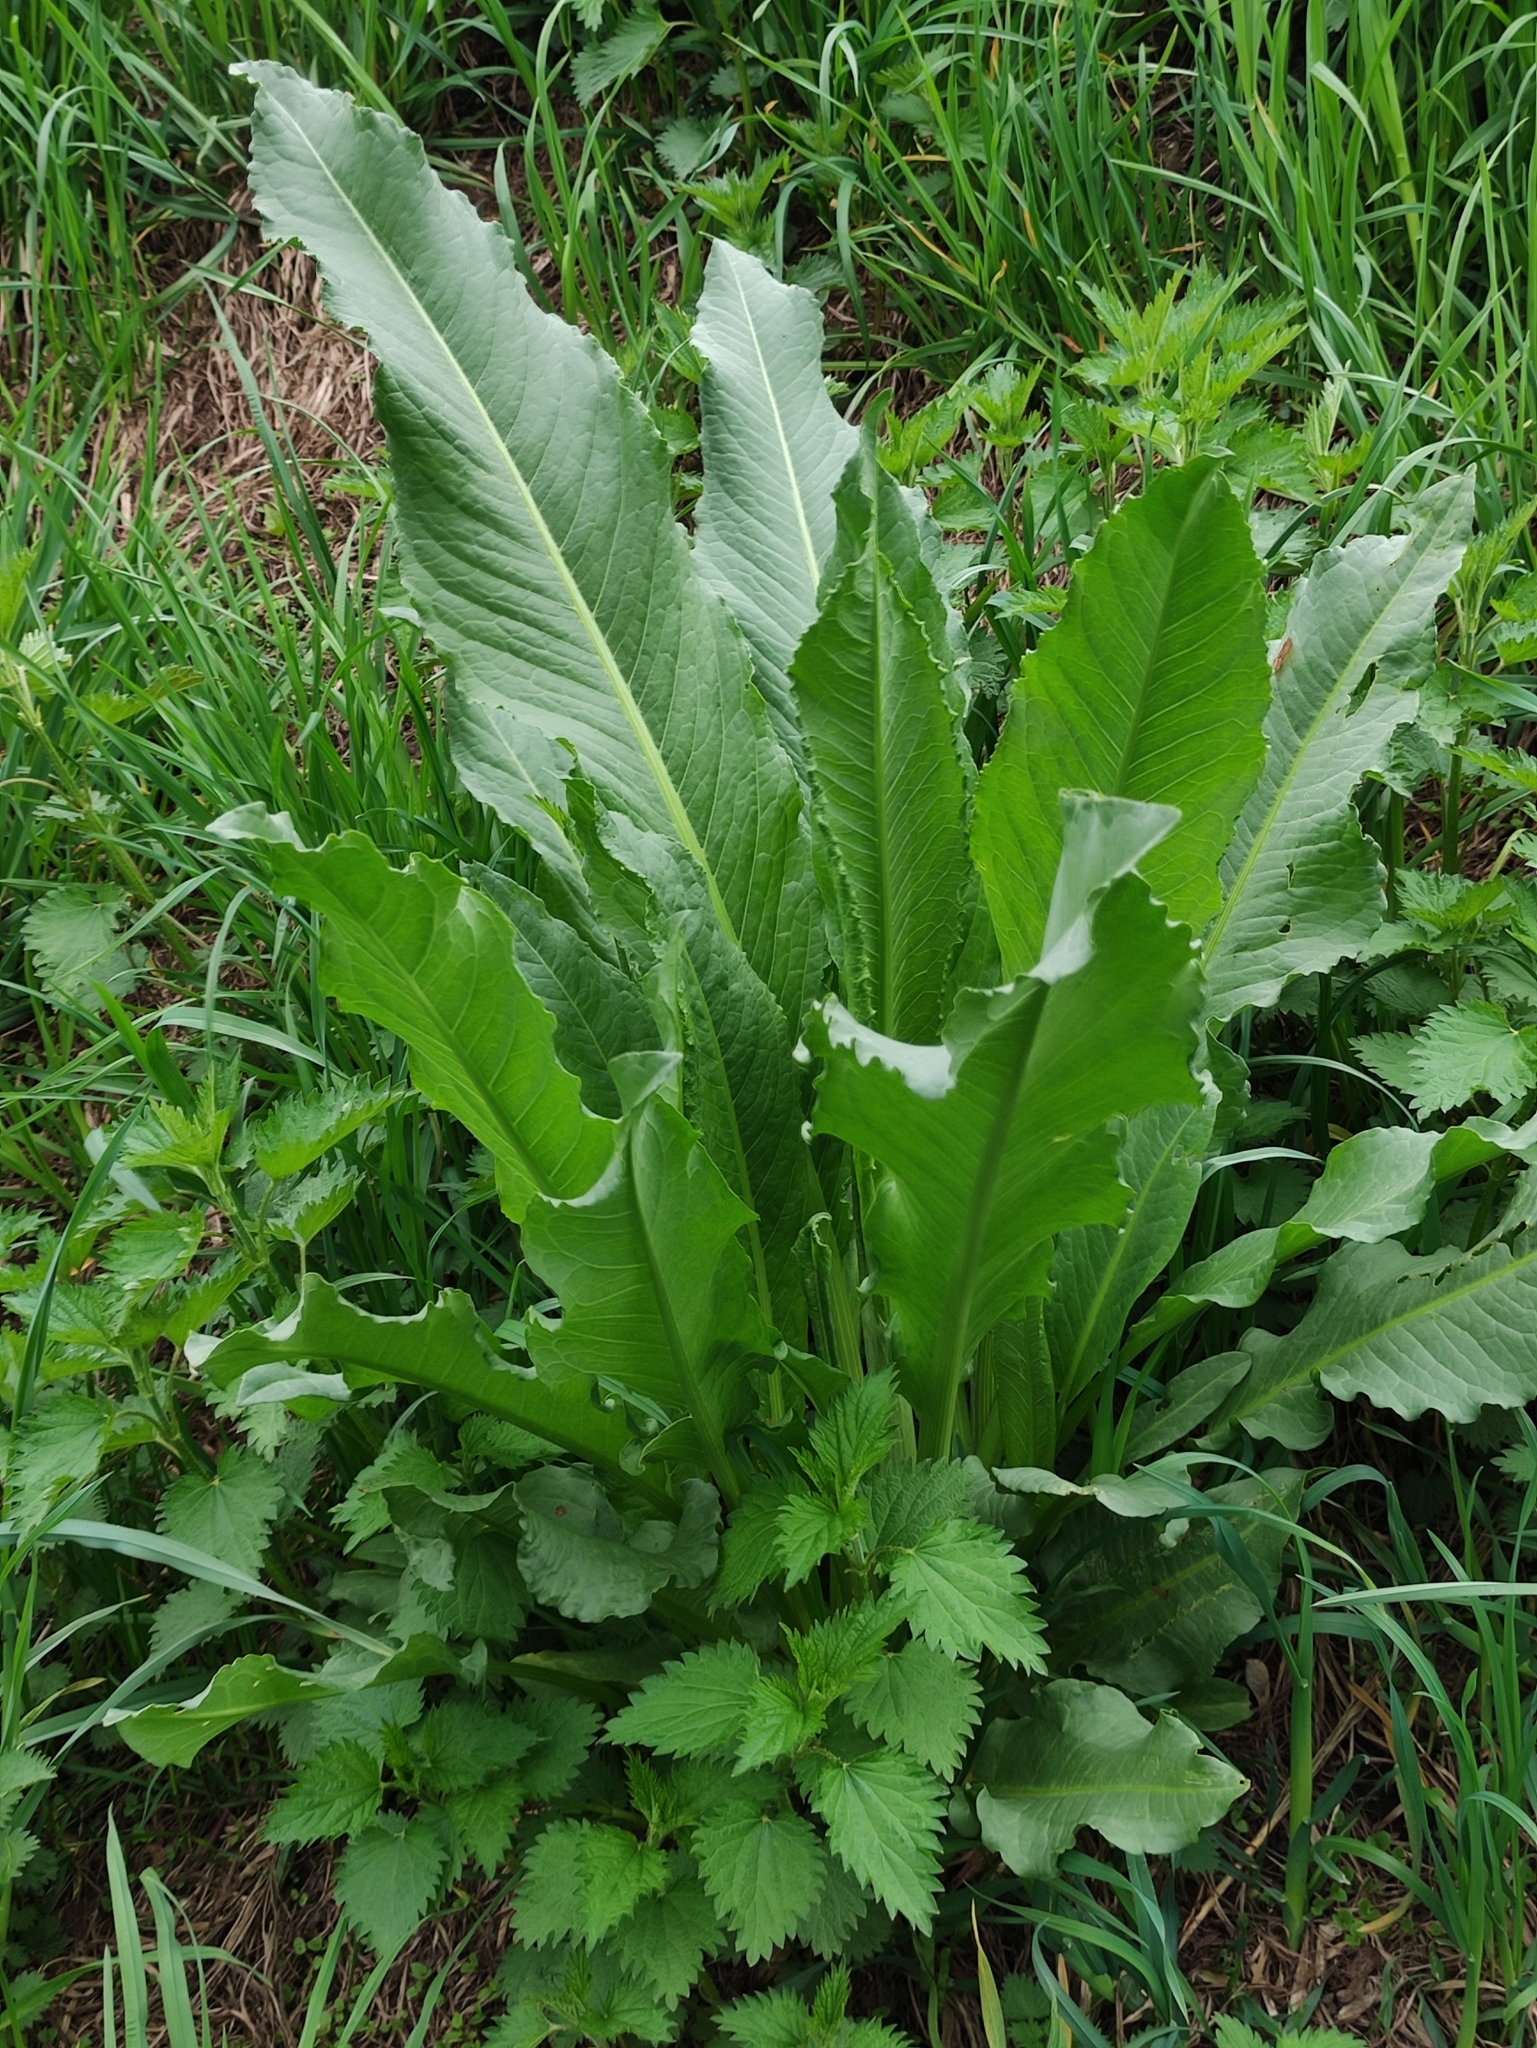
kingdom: Plantae
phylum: Tracheophyta
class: Magnoliopsida
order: Brassicales
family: Brassicaceae
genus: Armoracia
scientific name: Armoracia rusticana
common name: Horseradish
